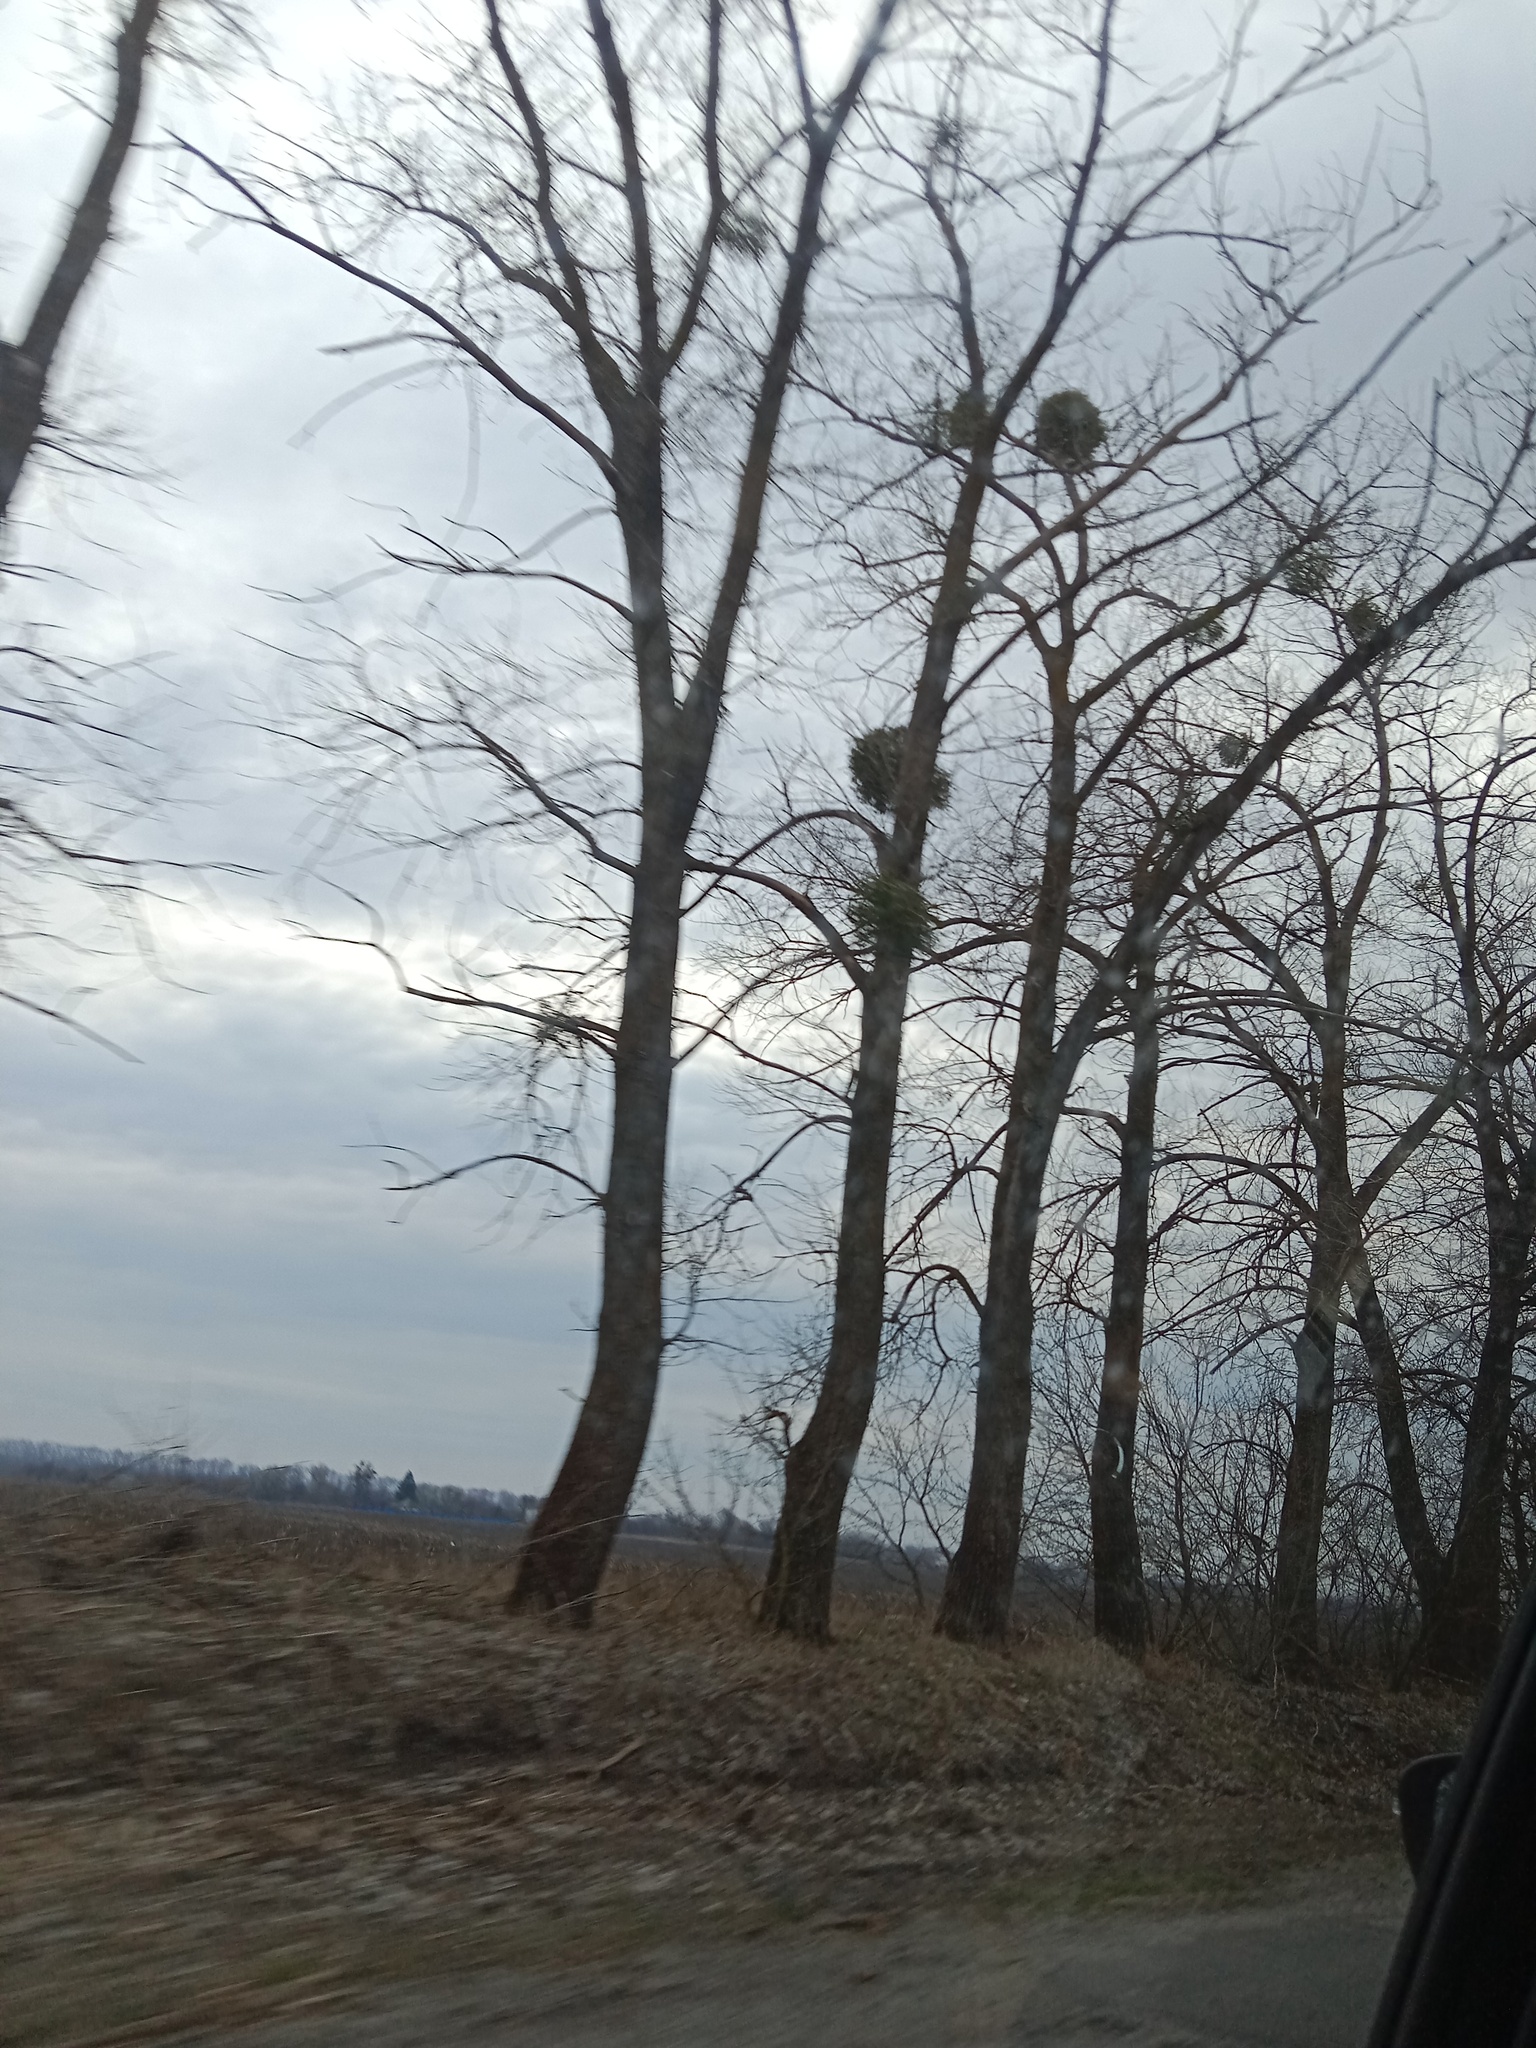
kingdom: Plantae
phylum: Tracheophyta
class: Magnoliopsida
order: Santalales
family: Viscaceae
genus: Viscum
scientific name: Viscum album
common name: Mistletoe
